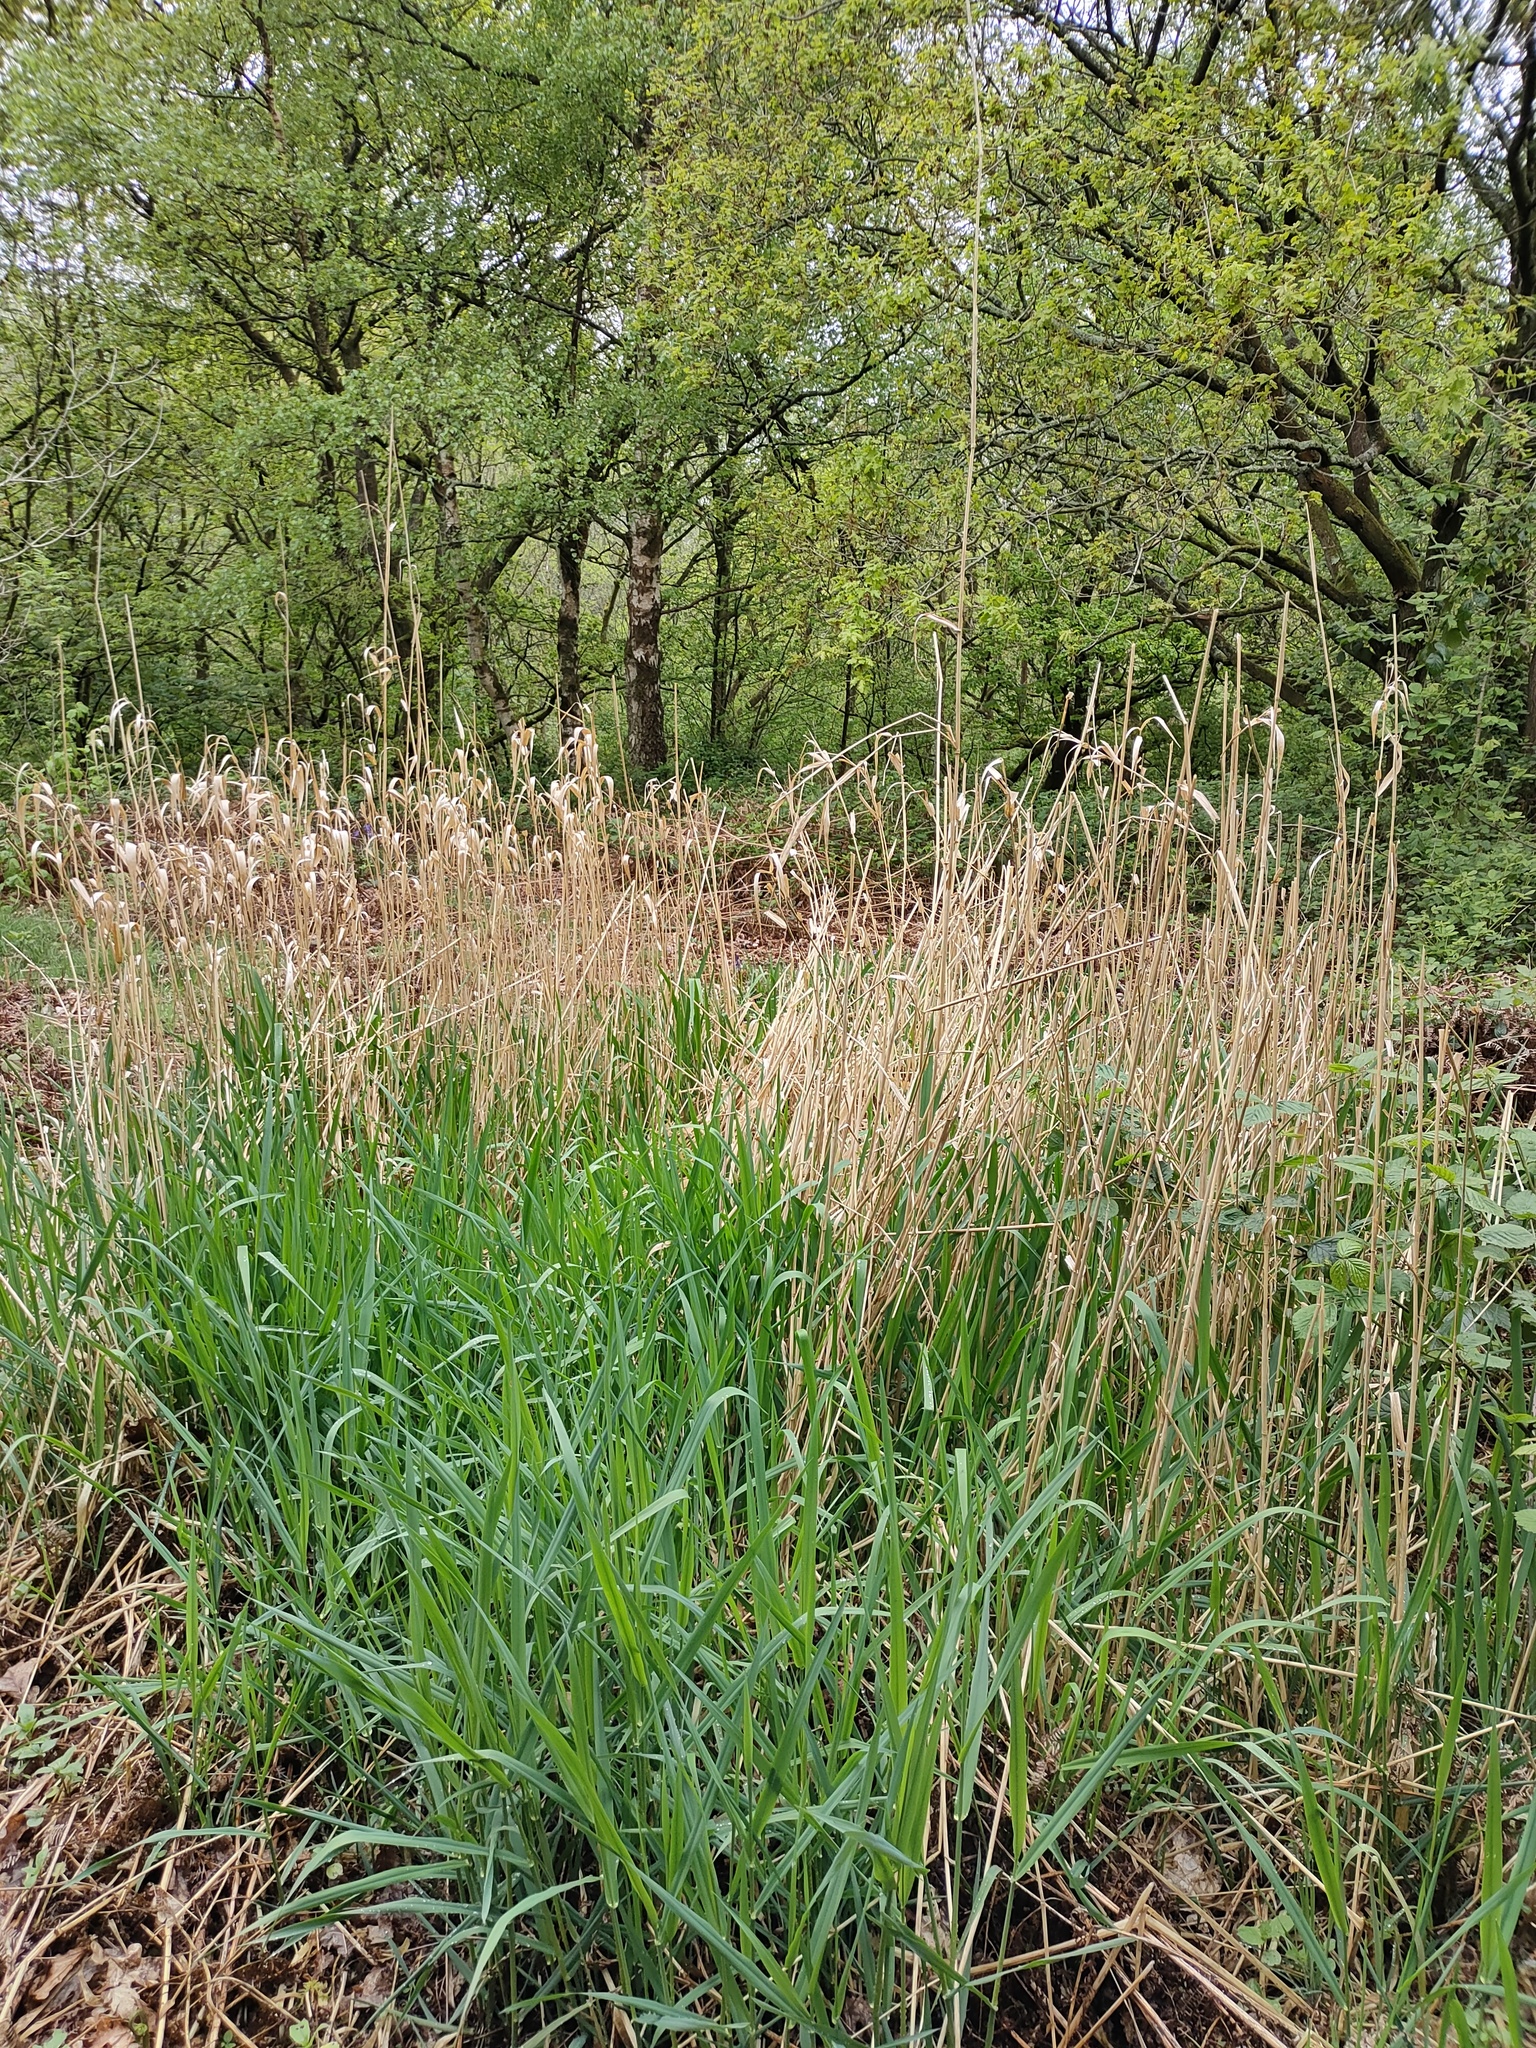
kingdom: Plantae
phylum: Tracheophyta
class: Liliopsida
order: Poales
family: Poaceae
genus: Phalaris
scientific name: Phalaris arundinacea
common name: Reed canary-grass
